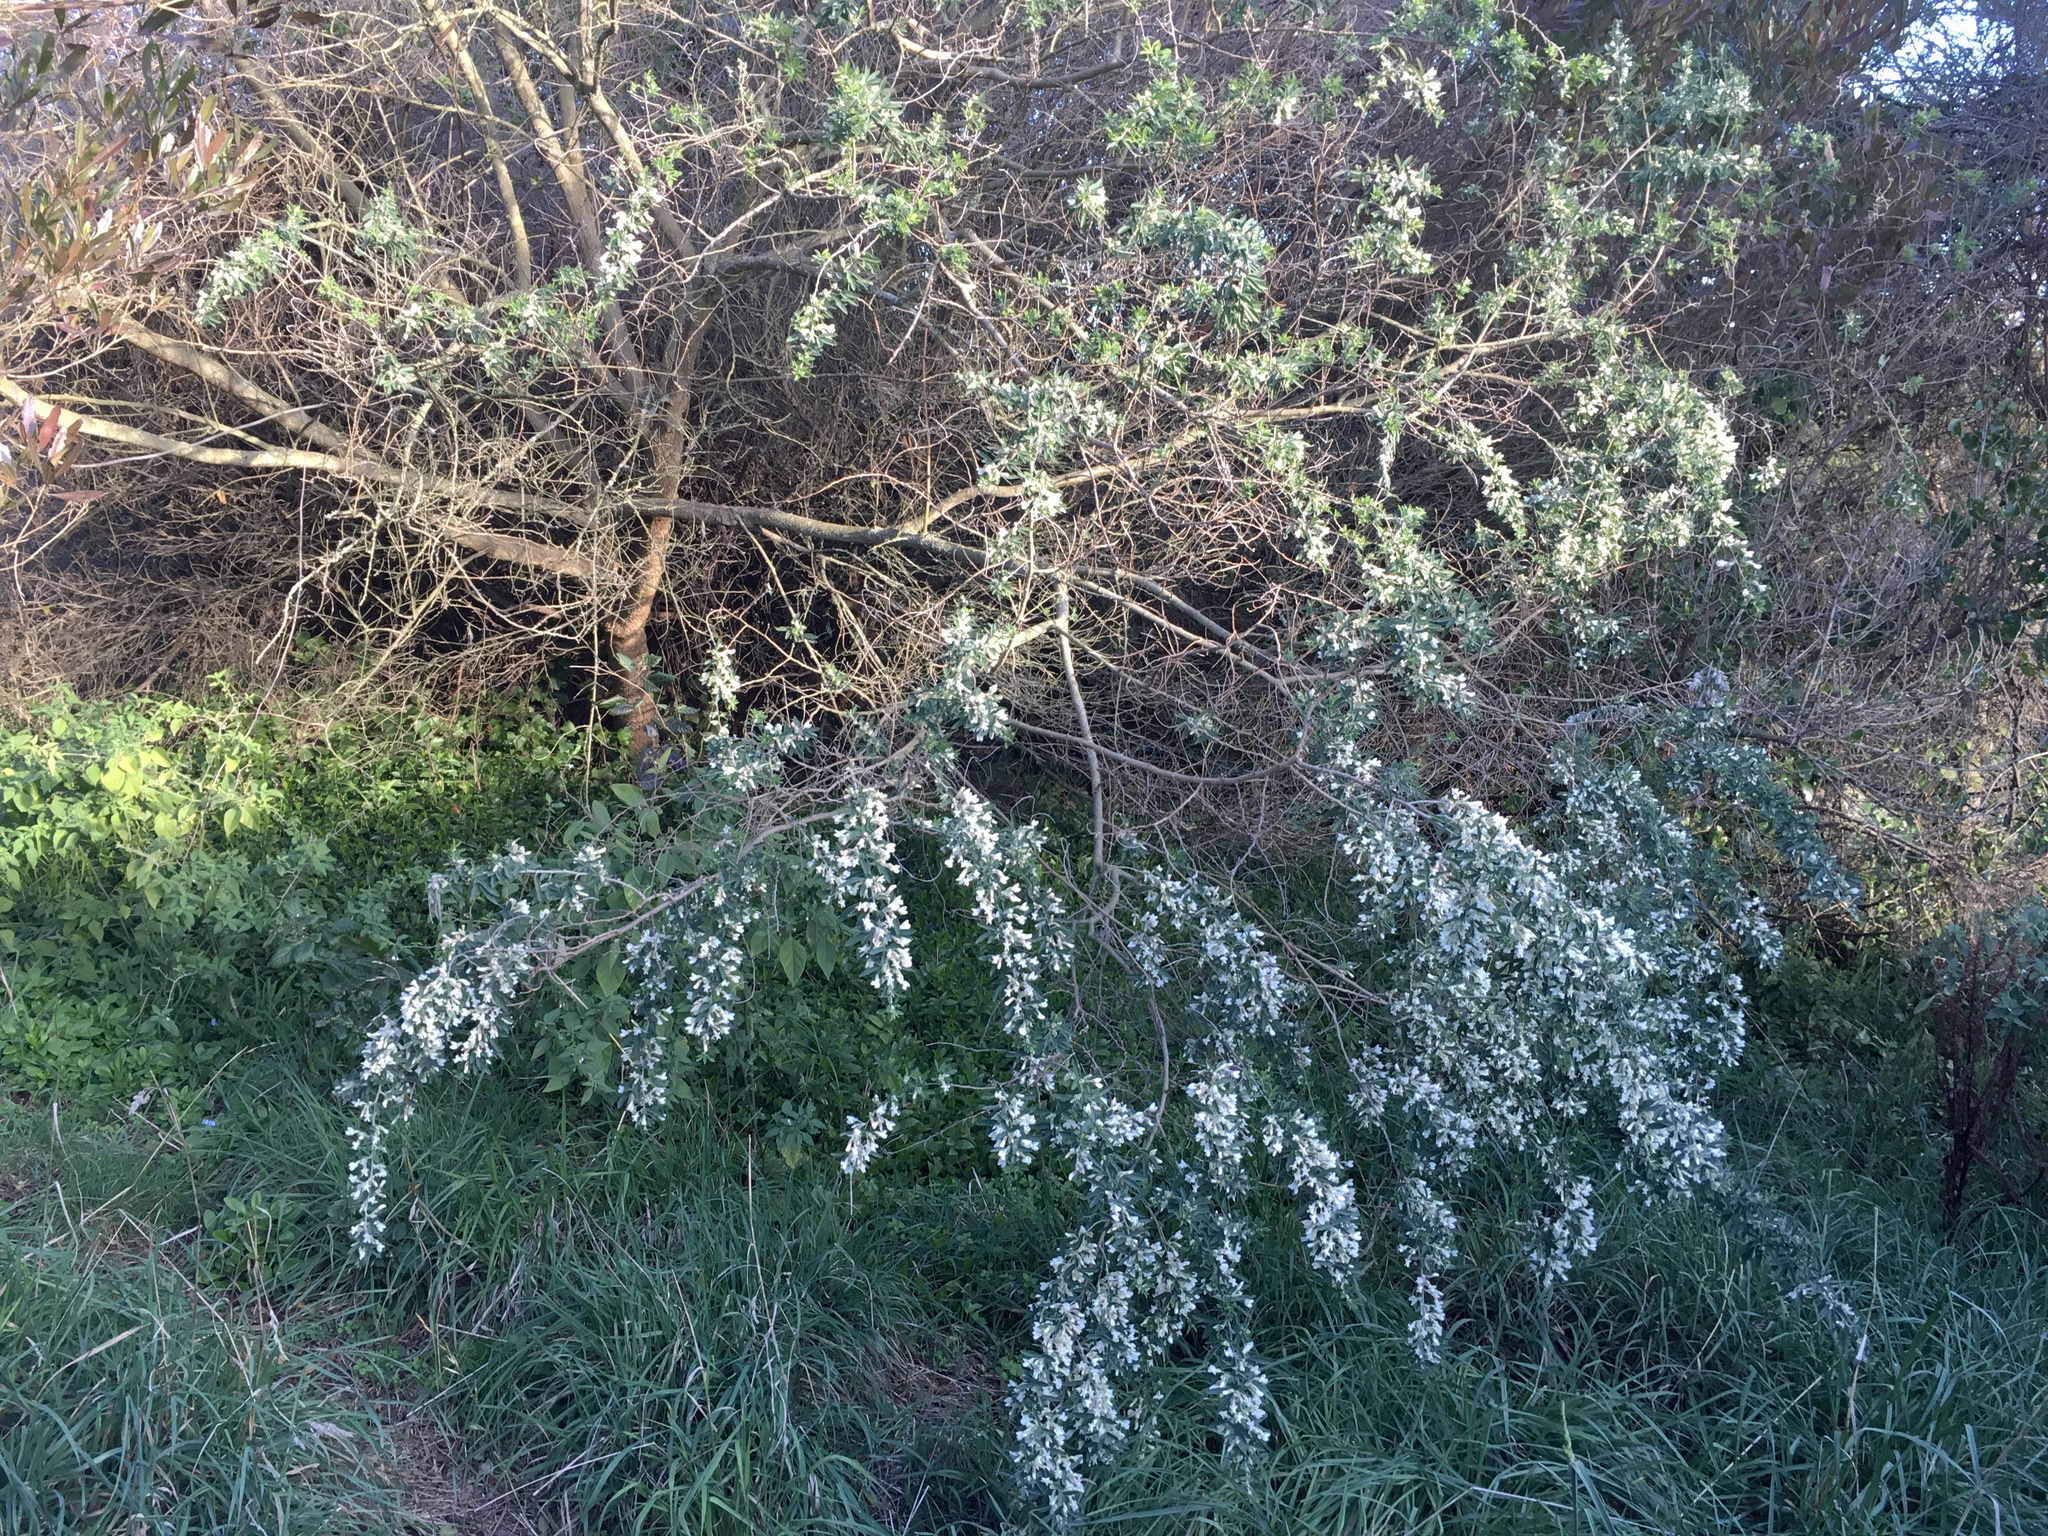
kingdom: Plantae
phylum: Tracheophyta
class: Magnoliopsida
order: Fabales
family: Fabaceae
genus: Chamaecytisus
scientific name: Chamaecytisus prolifer
